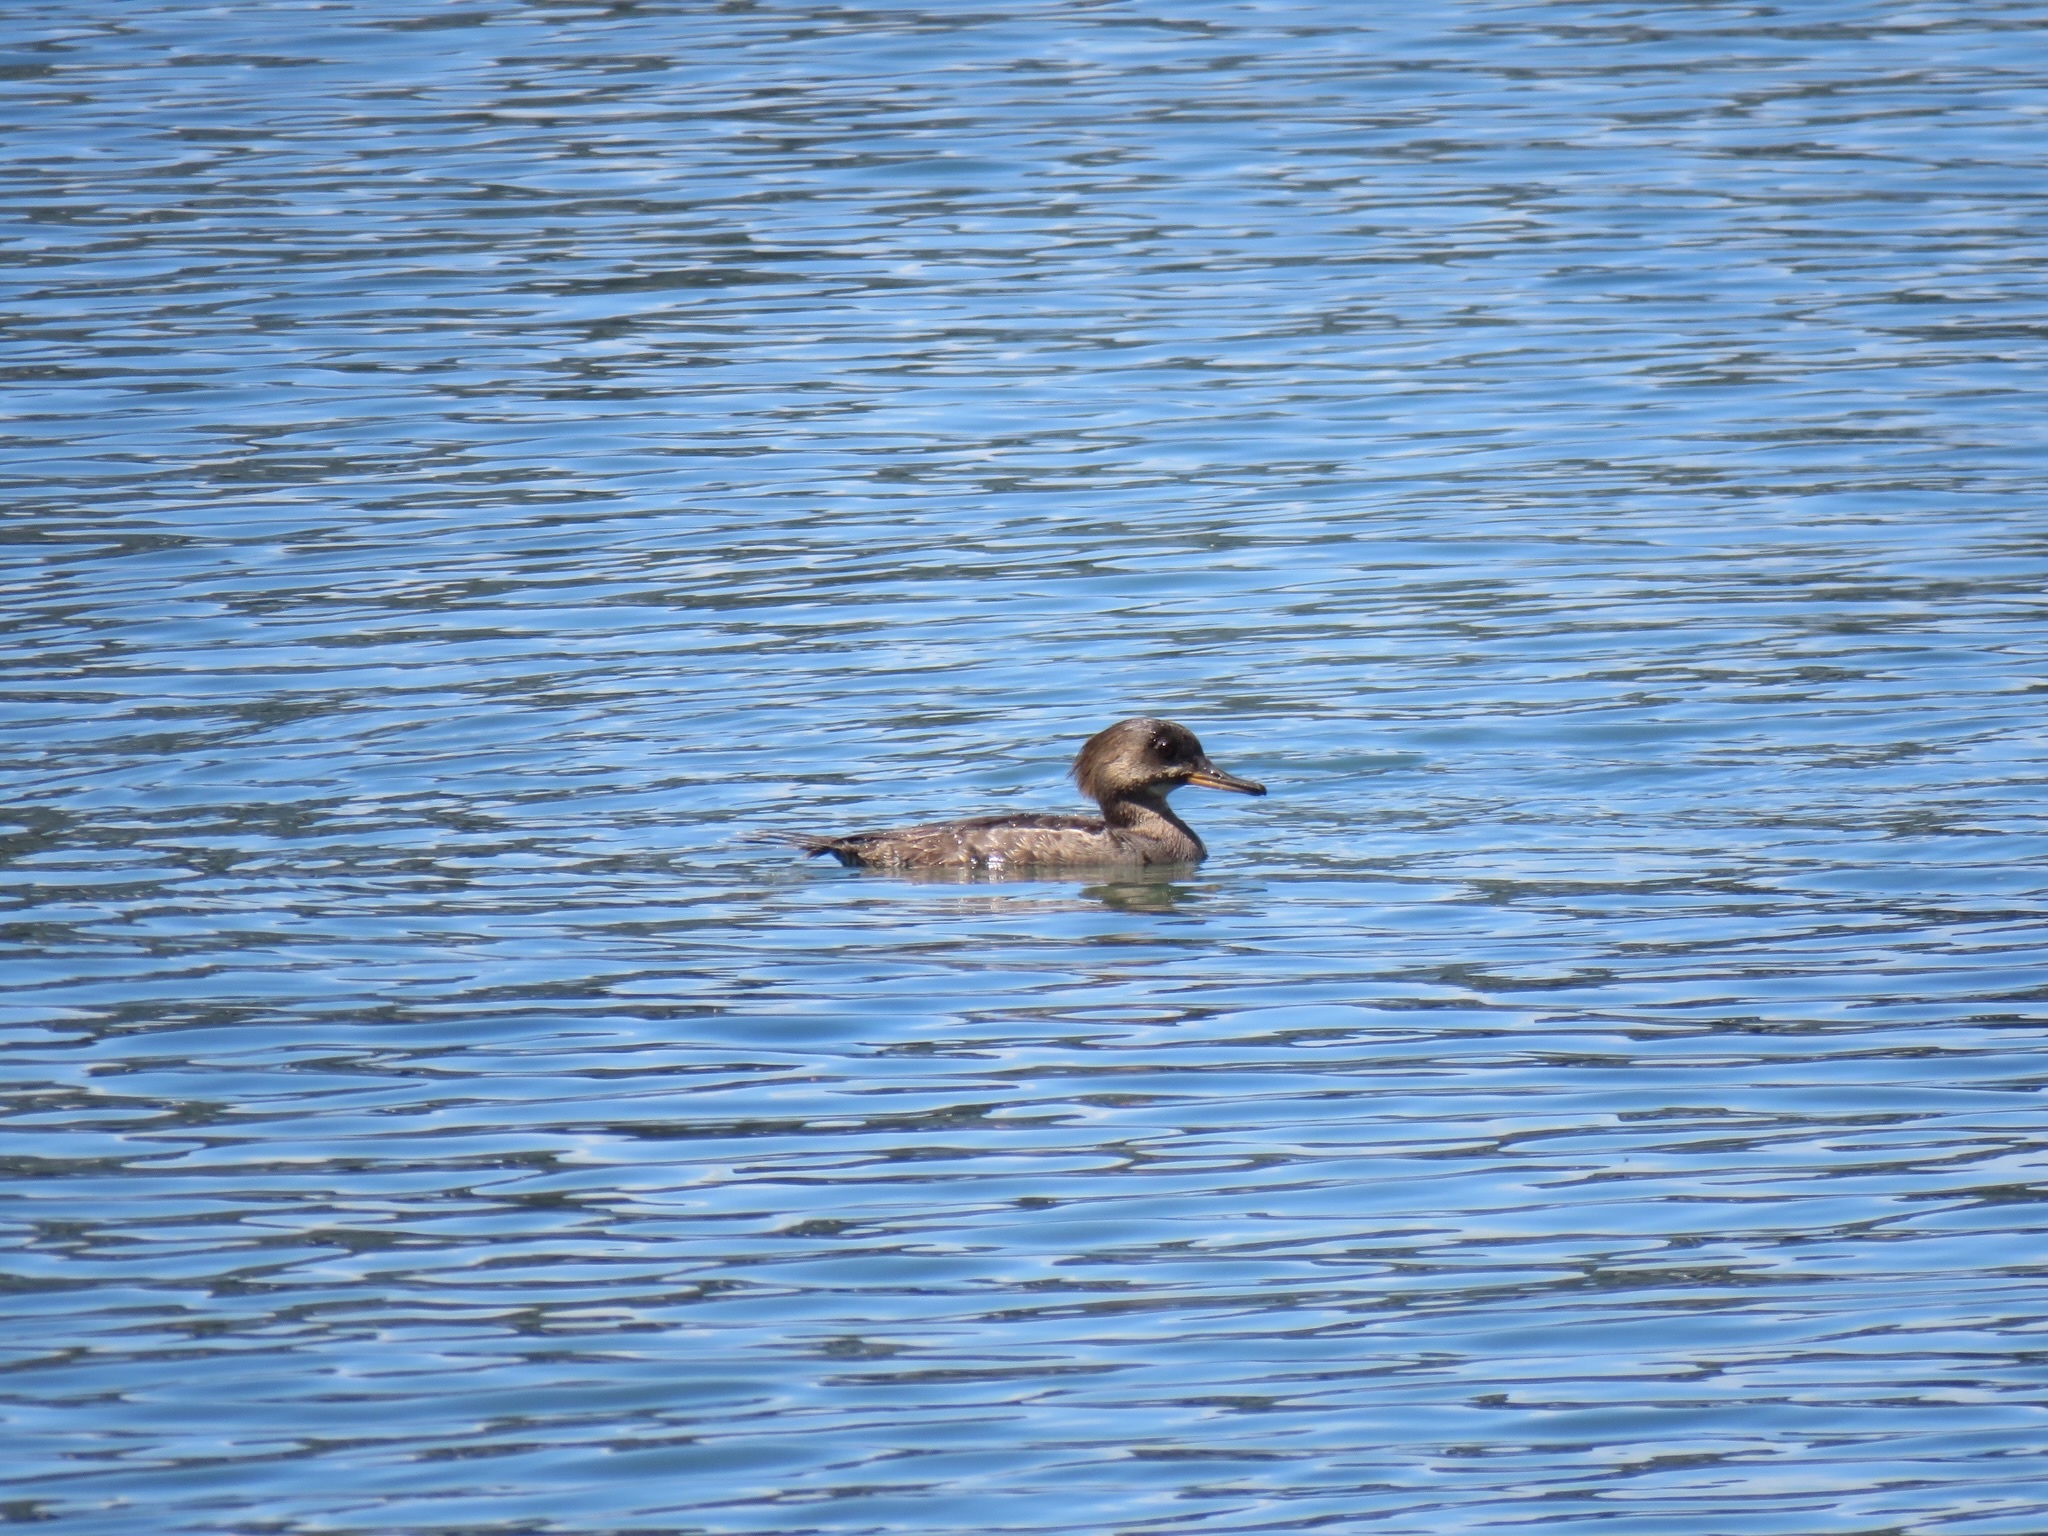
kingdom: Animalia
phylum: Chordata
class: Aves
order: Anseriformes
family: Anatidae
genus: Lophodytes
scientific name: Lophodytes cucullatus
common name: Hooded merganser
